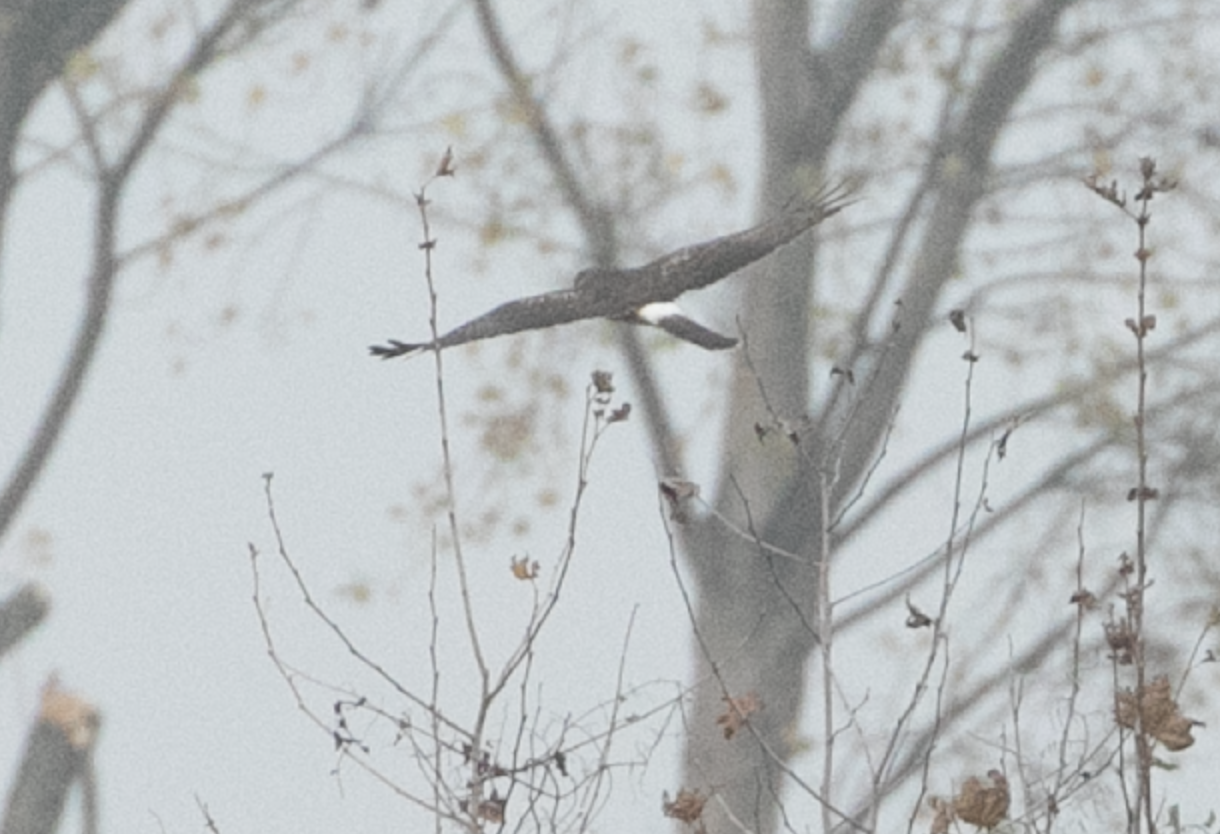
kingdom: Animalia
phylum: Chordata
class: Aves
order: Accipitriformes
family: Accipitridae
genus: Circus
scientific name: Circus cyaneus
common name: Hen harrier
